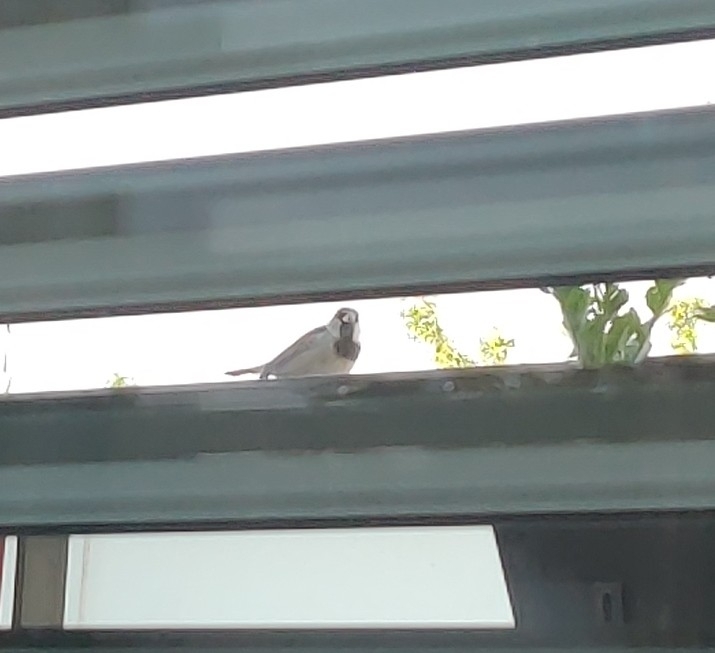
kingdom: Animalia
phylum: Chordata
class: Aves
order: Passeriformes
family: Passeridae
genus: Passer
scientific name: Passer domesticus
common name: House sparrow
